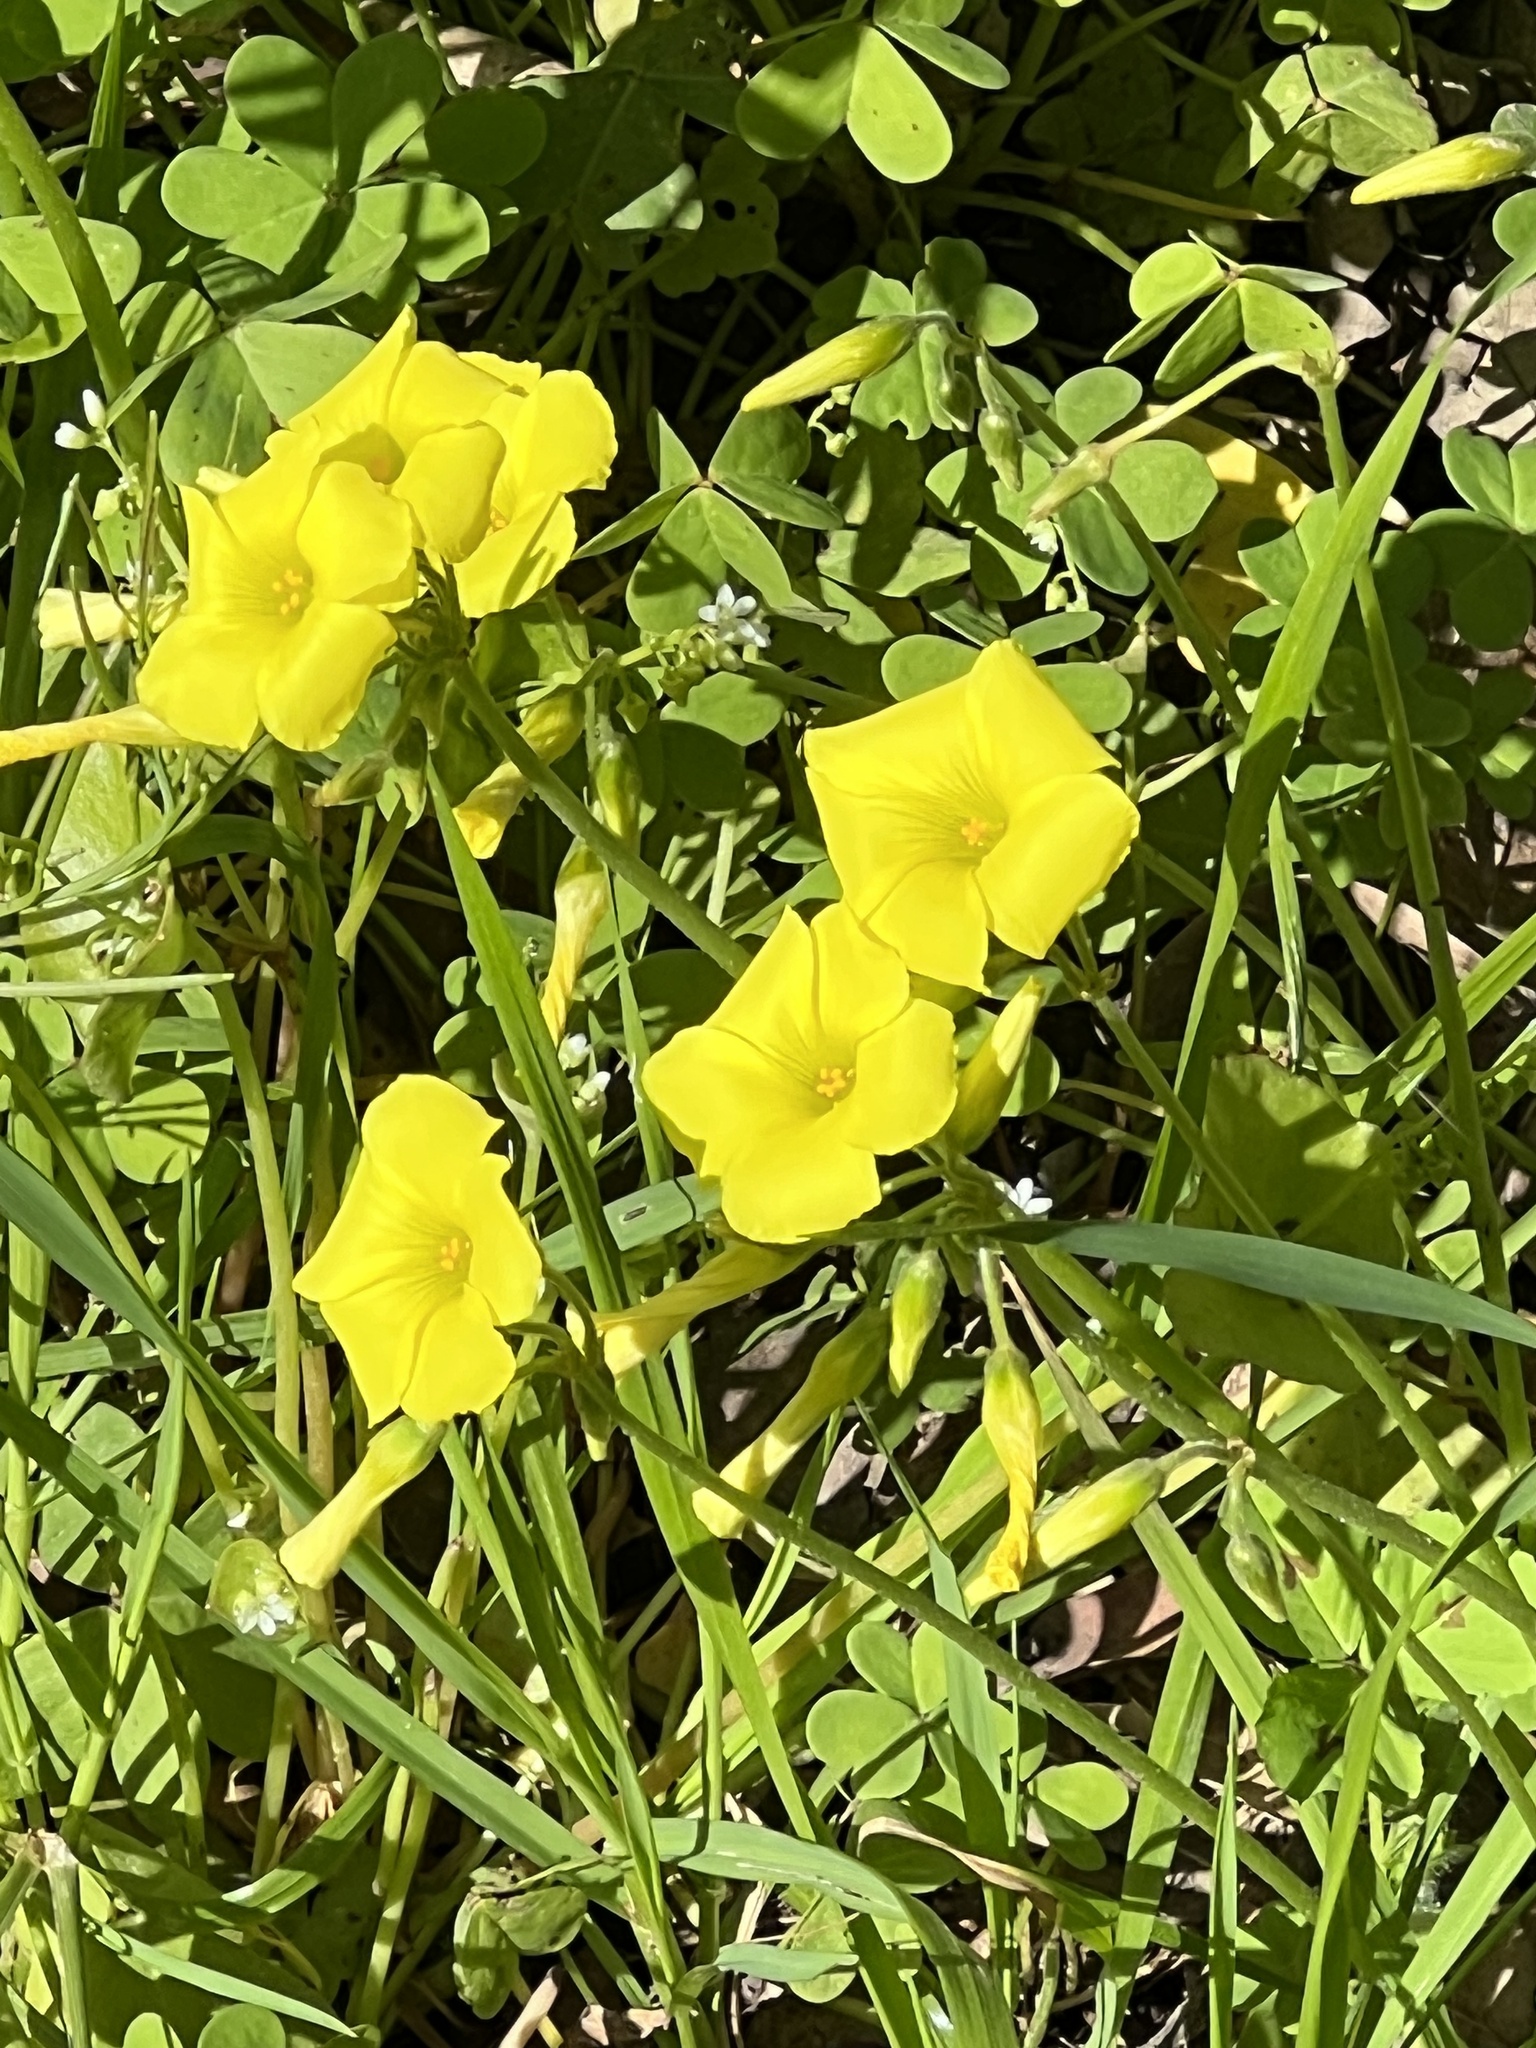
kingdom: Plantae
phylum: Tracheophyta
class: Magnoliopsida
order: Oxalidales
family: Oxalidaceae
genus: Oxalis
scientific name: Oxalis pes-caprae
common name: Bermuda-buttercup
